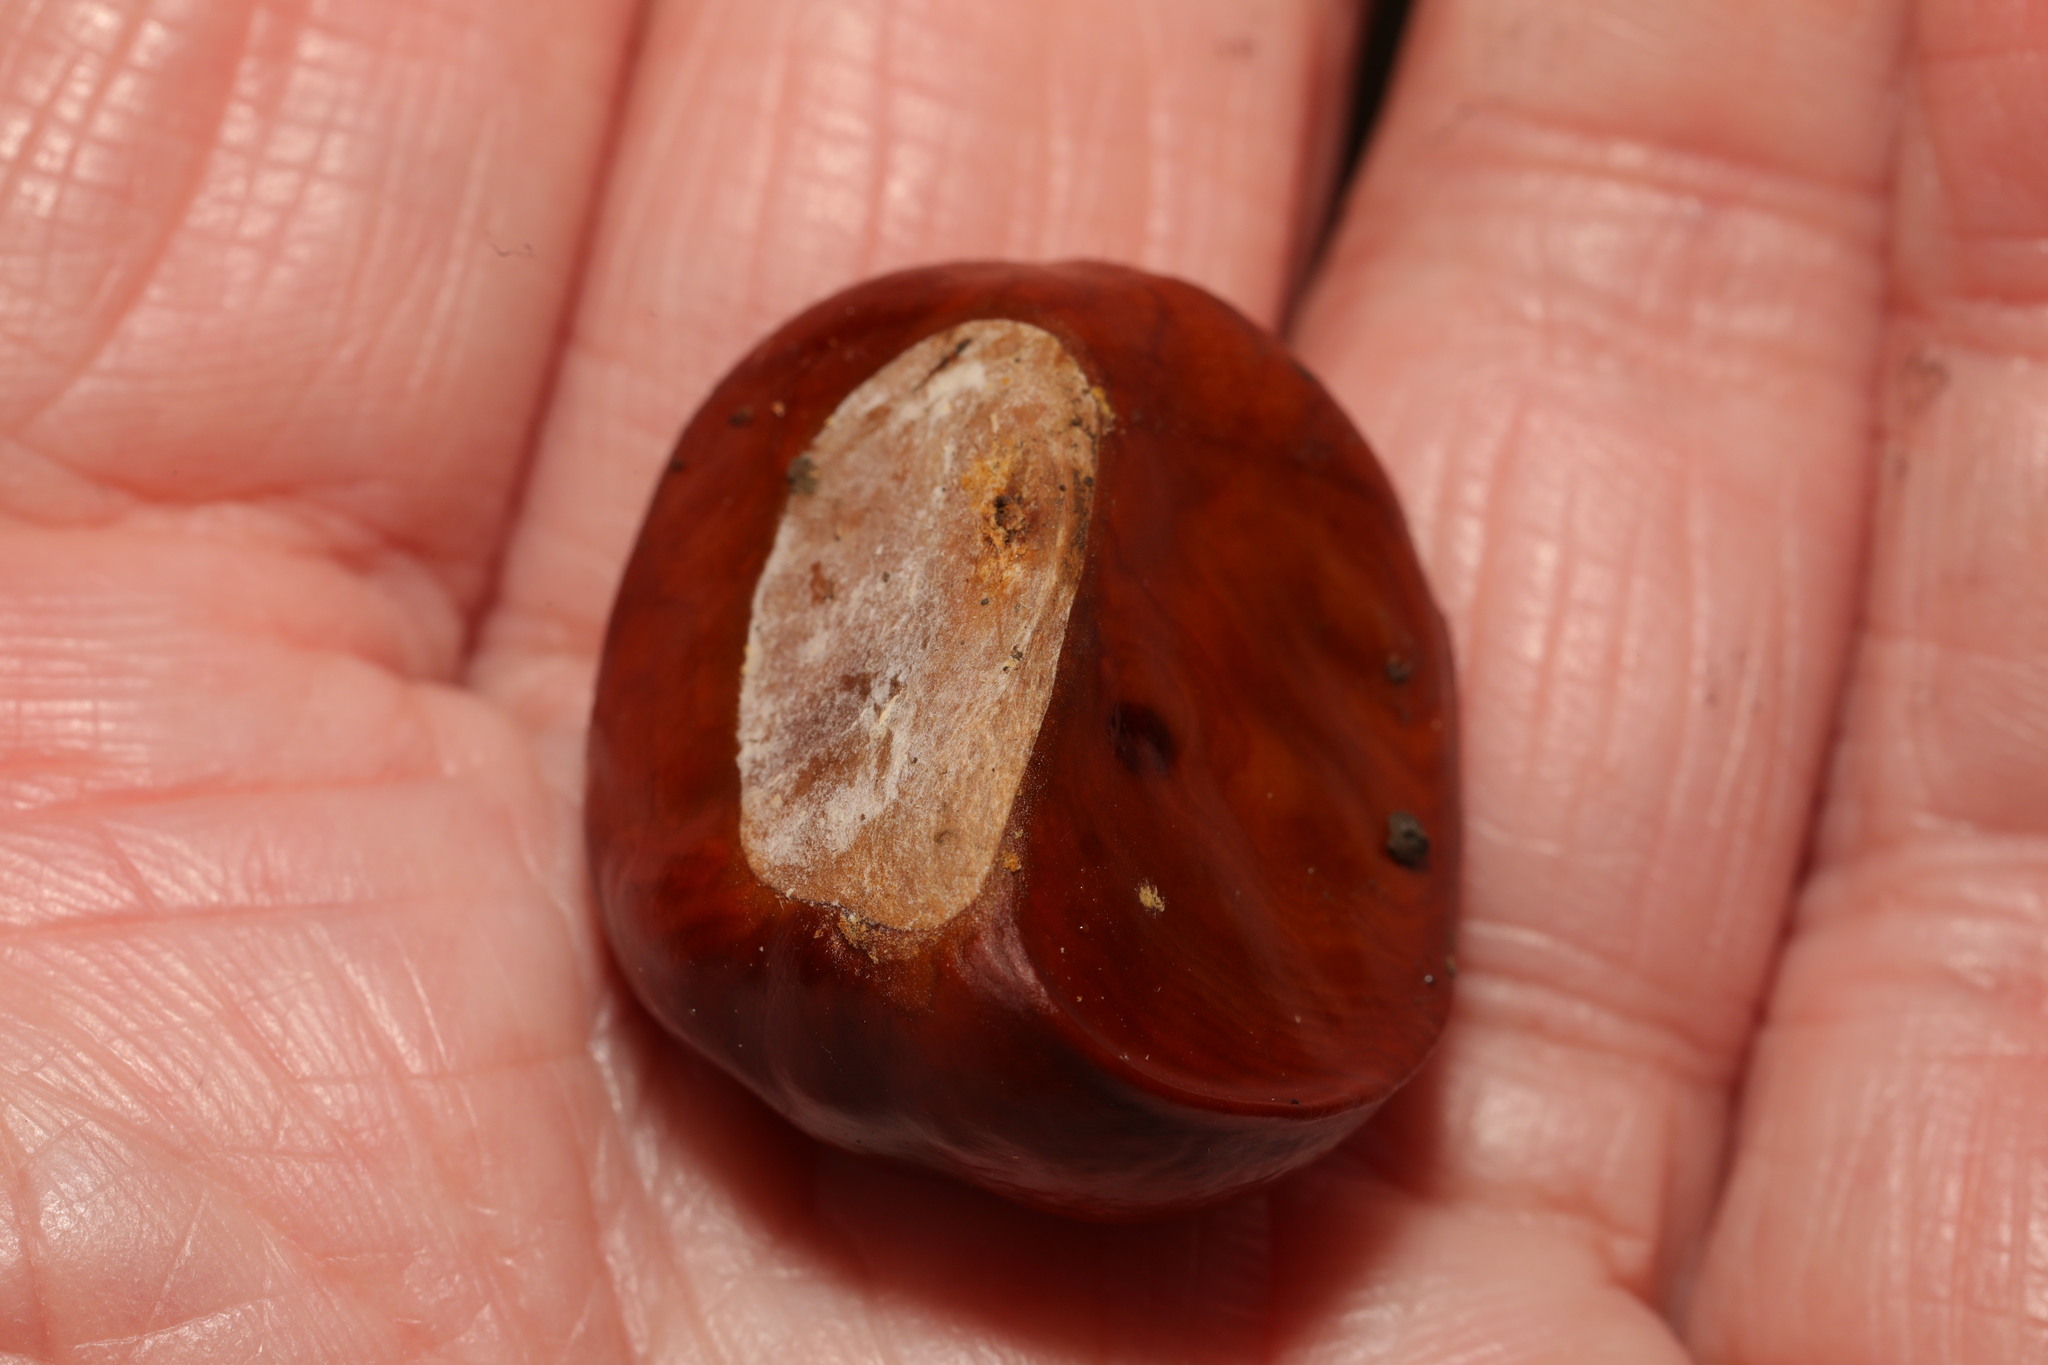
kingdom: Plantae
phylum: Tracheophyta
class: Magnoliopsida
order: Sapindales
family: Sapindaceae
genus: Aesculus
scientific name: Aesculus hippocastanum
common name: Horse-chestnut
